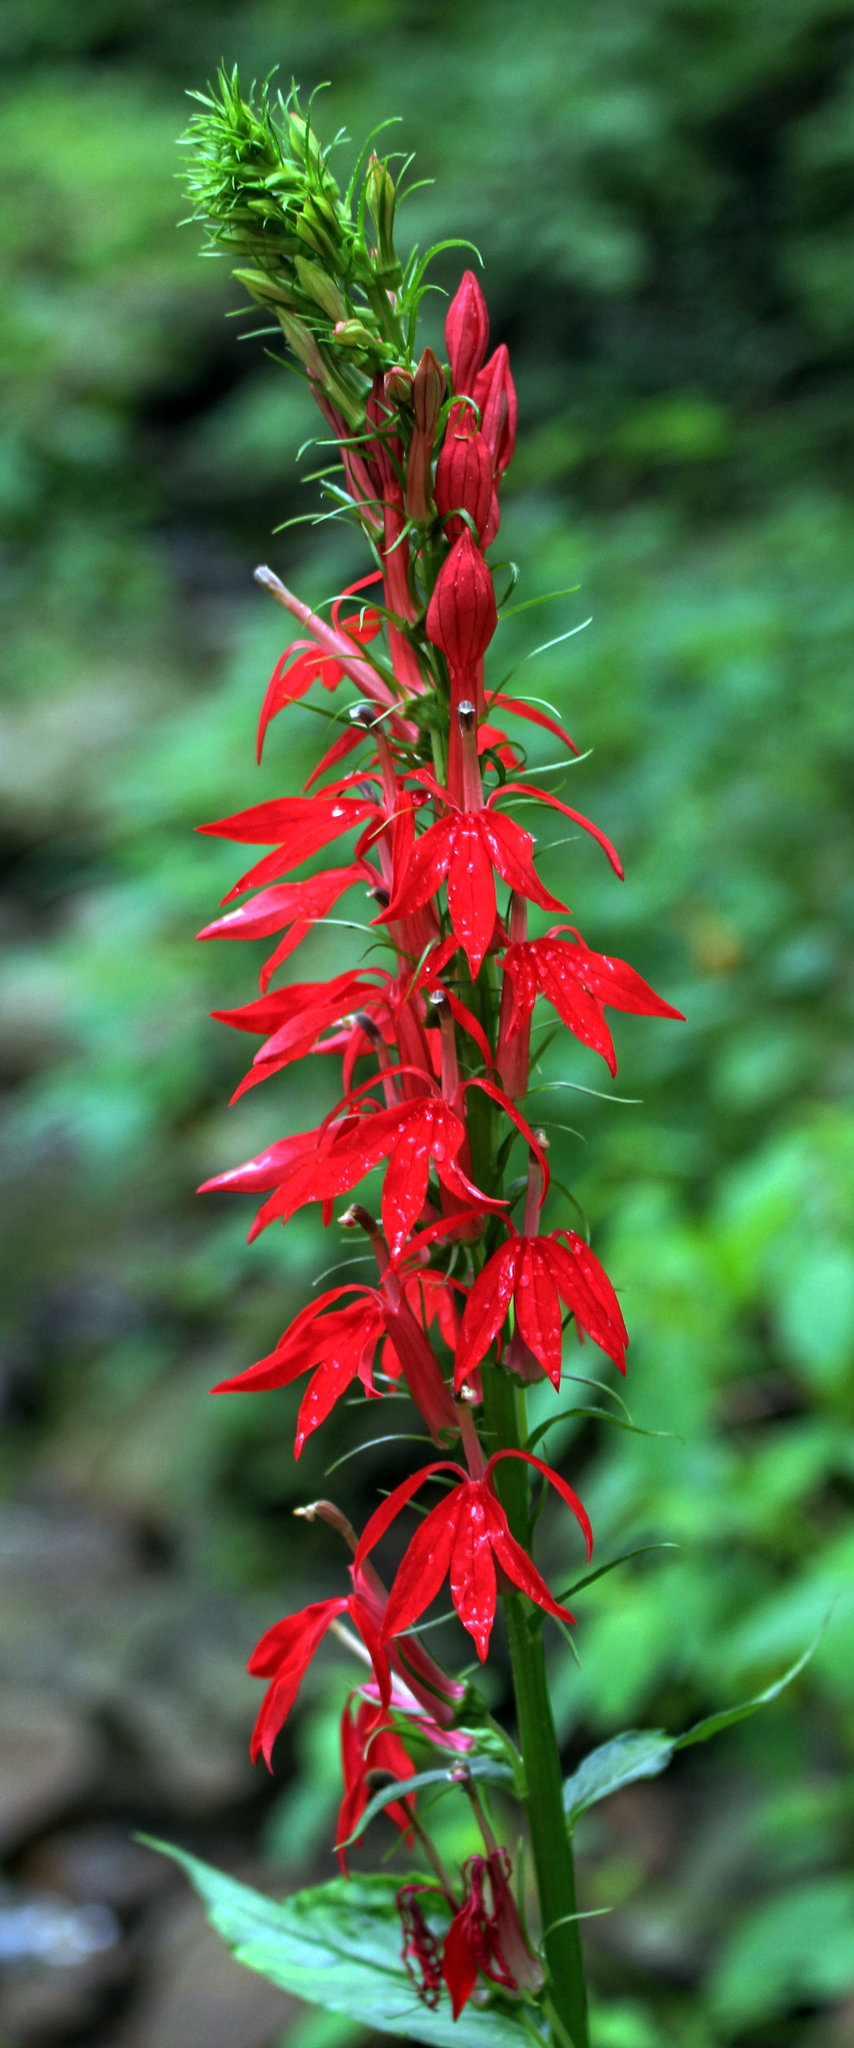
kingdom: Plantae
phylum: Tracheophyta
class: Magnoliopsida
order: Asterales
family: Campanulaceae
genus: Lobelia
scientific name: Lobelia cardinalis
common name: Cardinal flower
